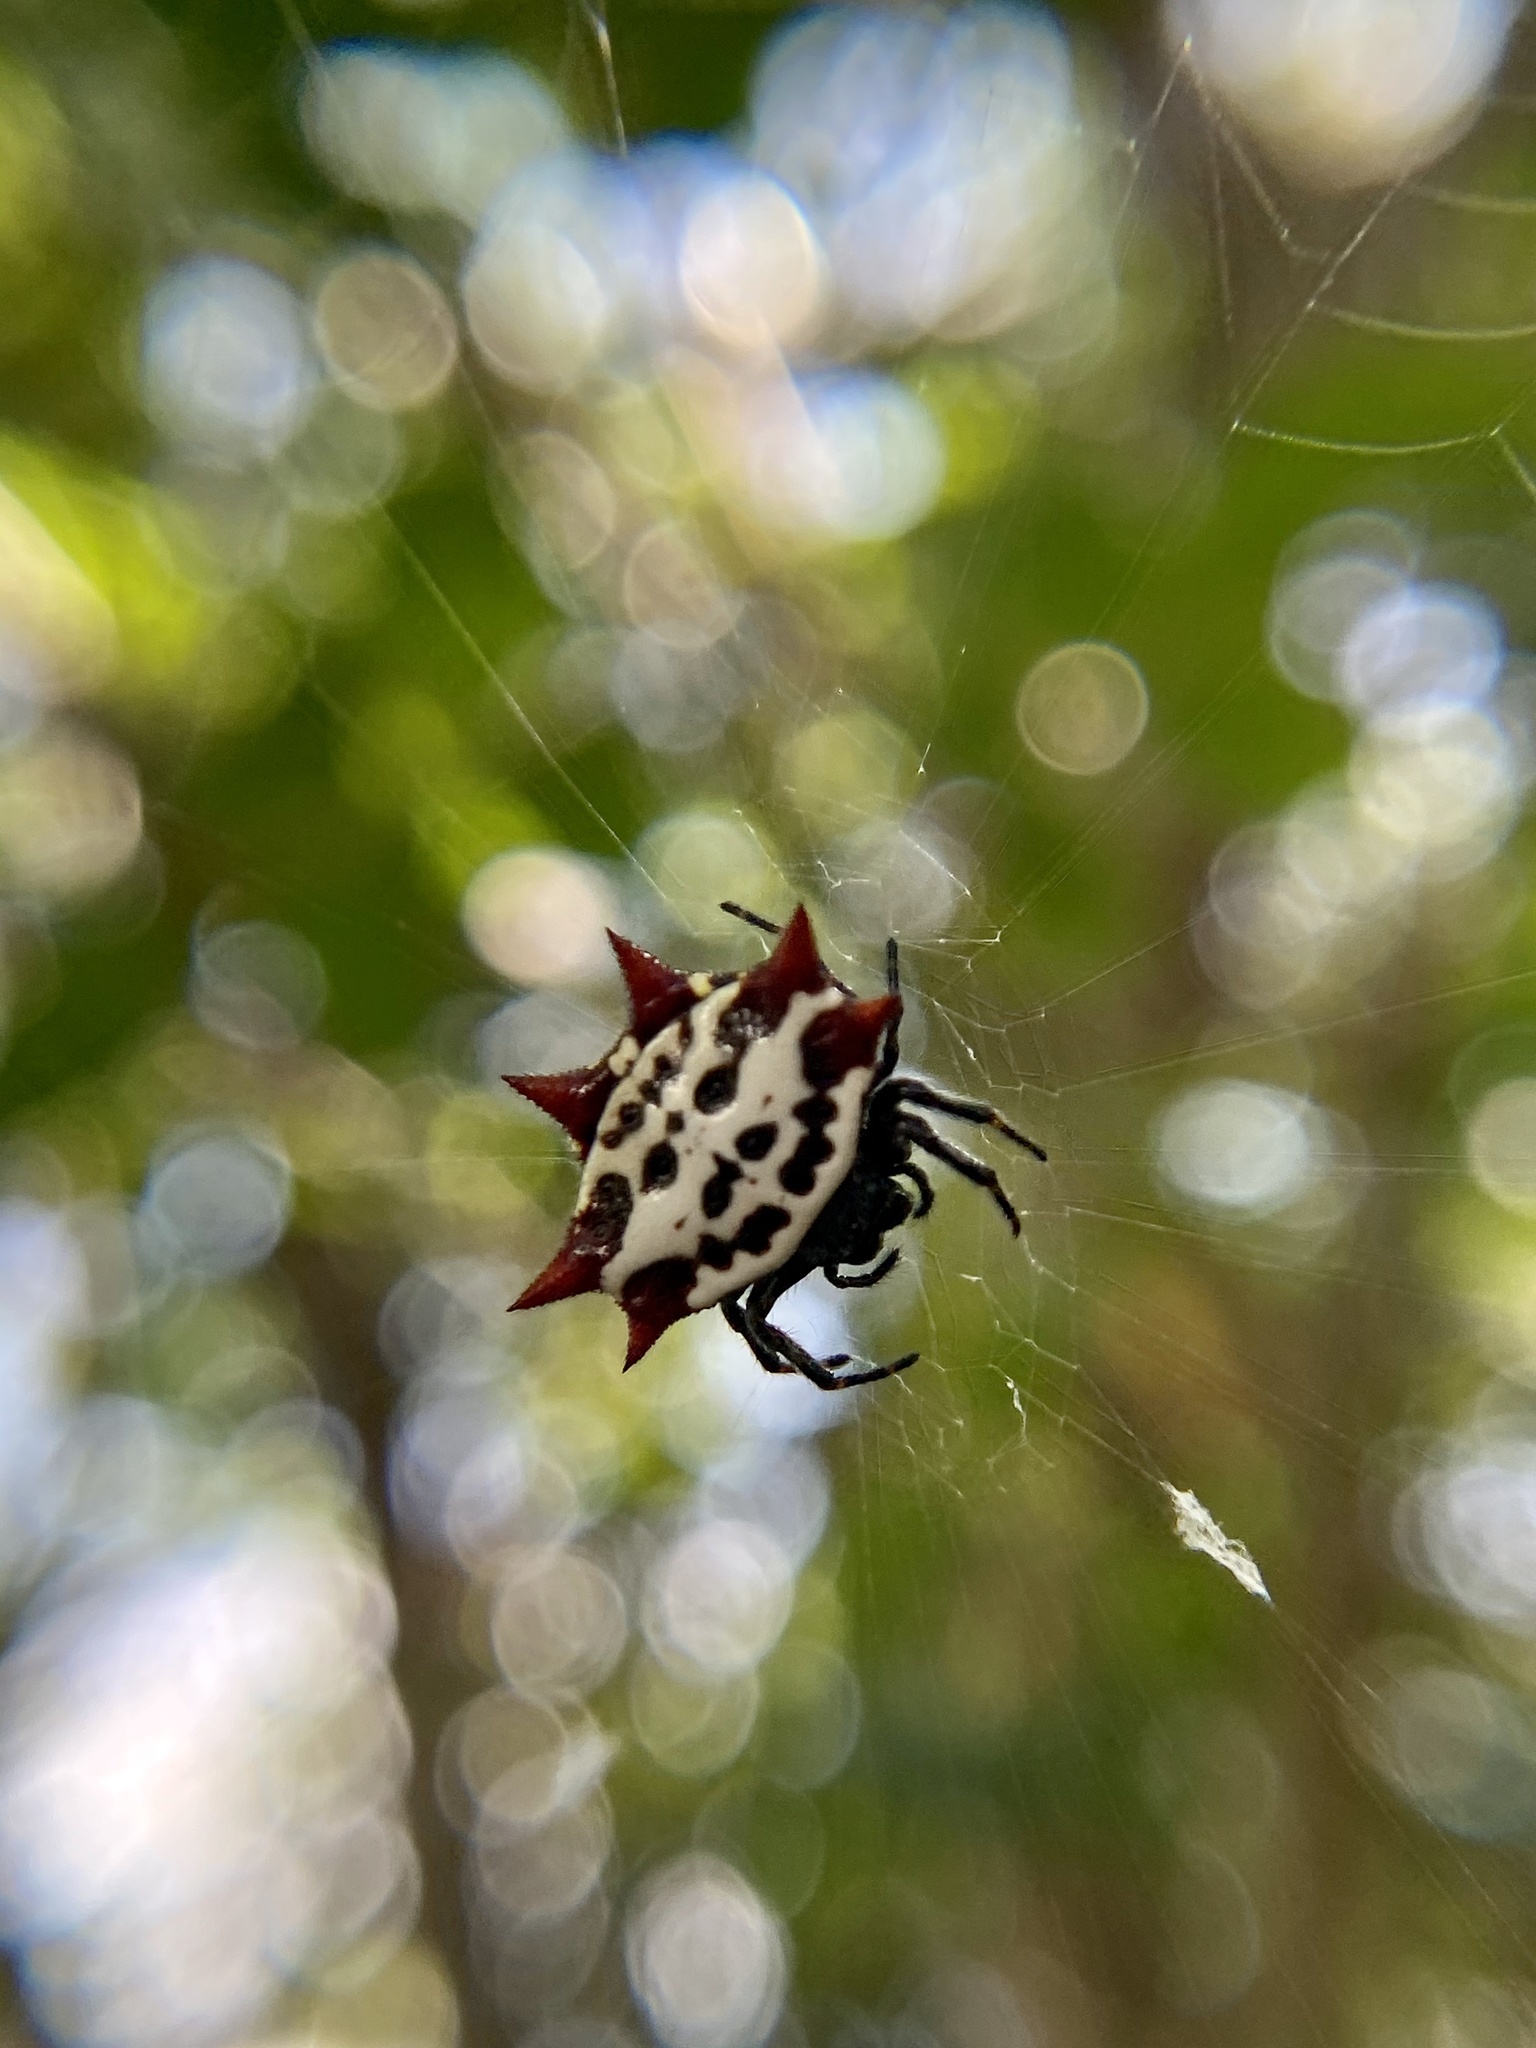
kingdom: Animalia
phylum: Arthropoda
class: Arachnida
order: Araneae
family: Araneidae
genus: Gasteracantha
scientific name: Gasteracantha cancriformis
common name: Orb weavers
